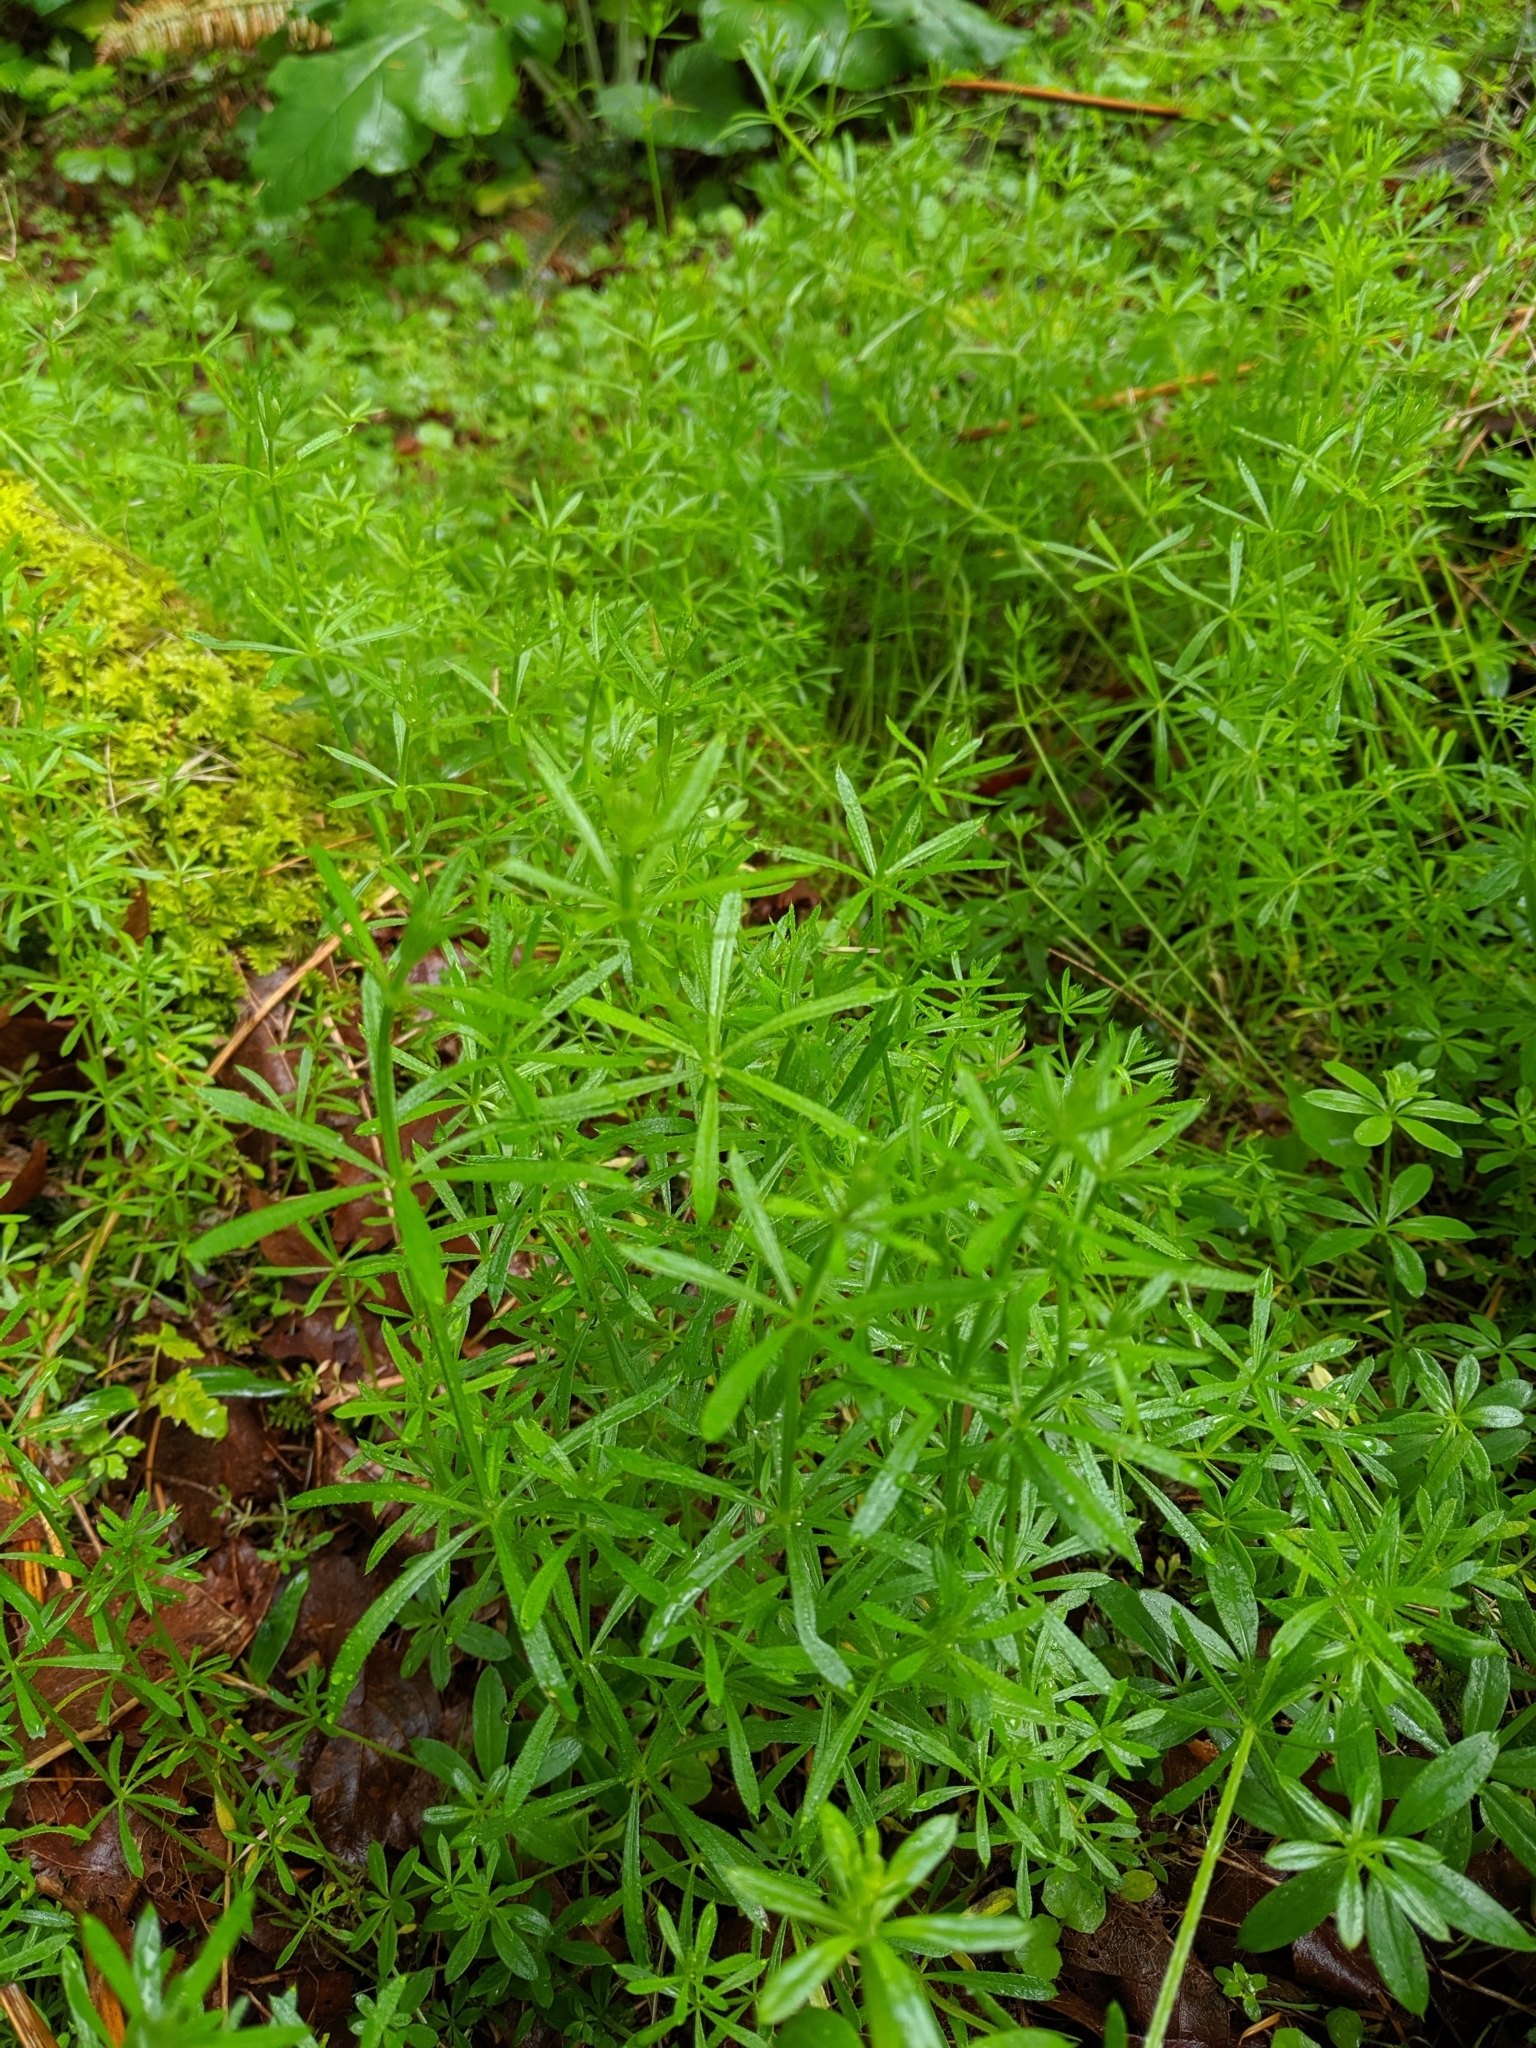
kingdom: Plantae
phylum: Tracheophyta
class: Magnoliopsida
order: Gentianales
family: Rubiaceae
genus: Galium
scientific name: Galium aparine
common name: Cleavers
